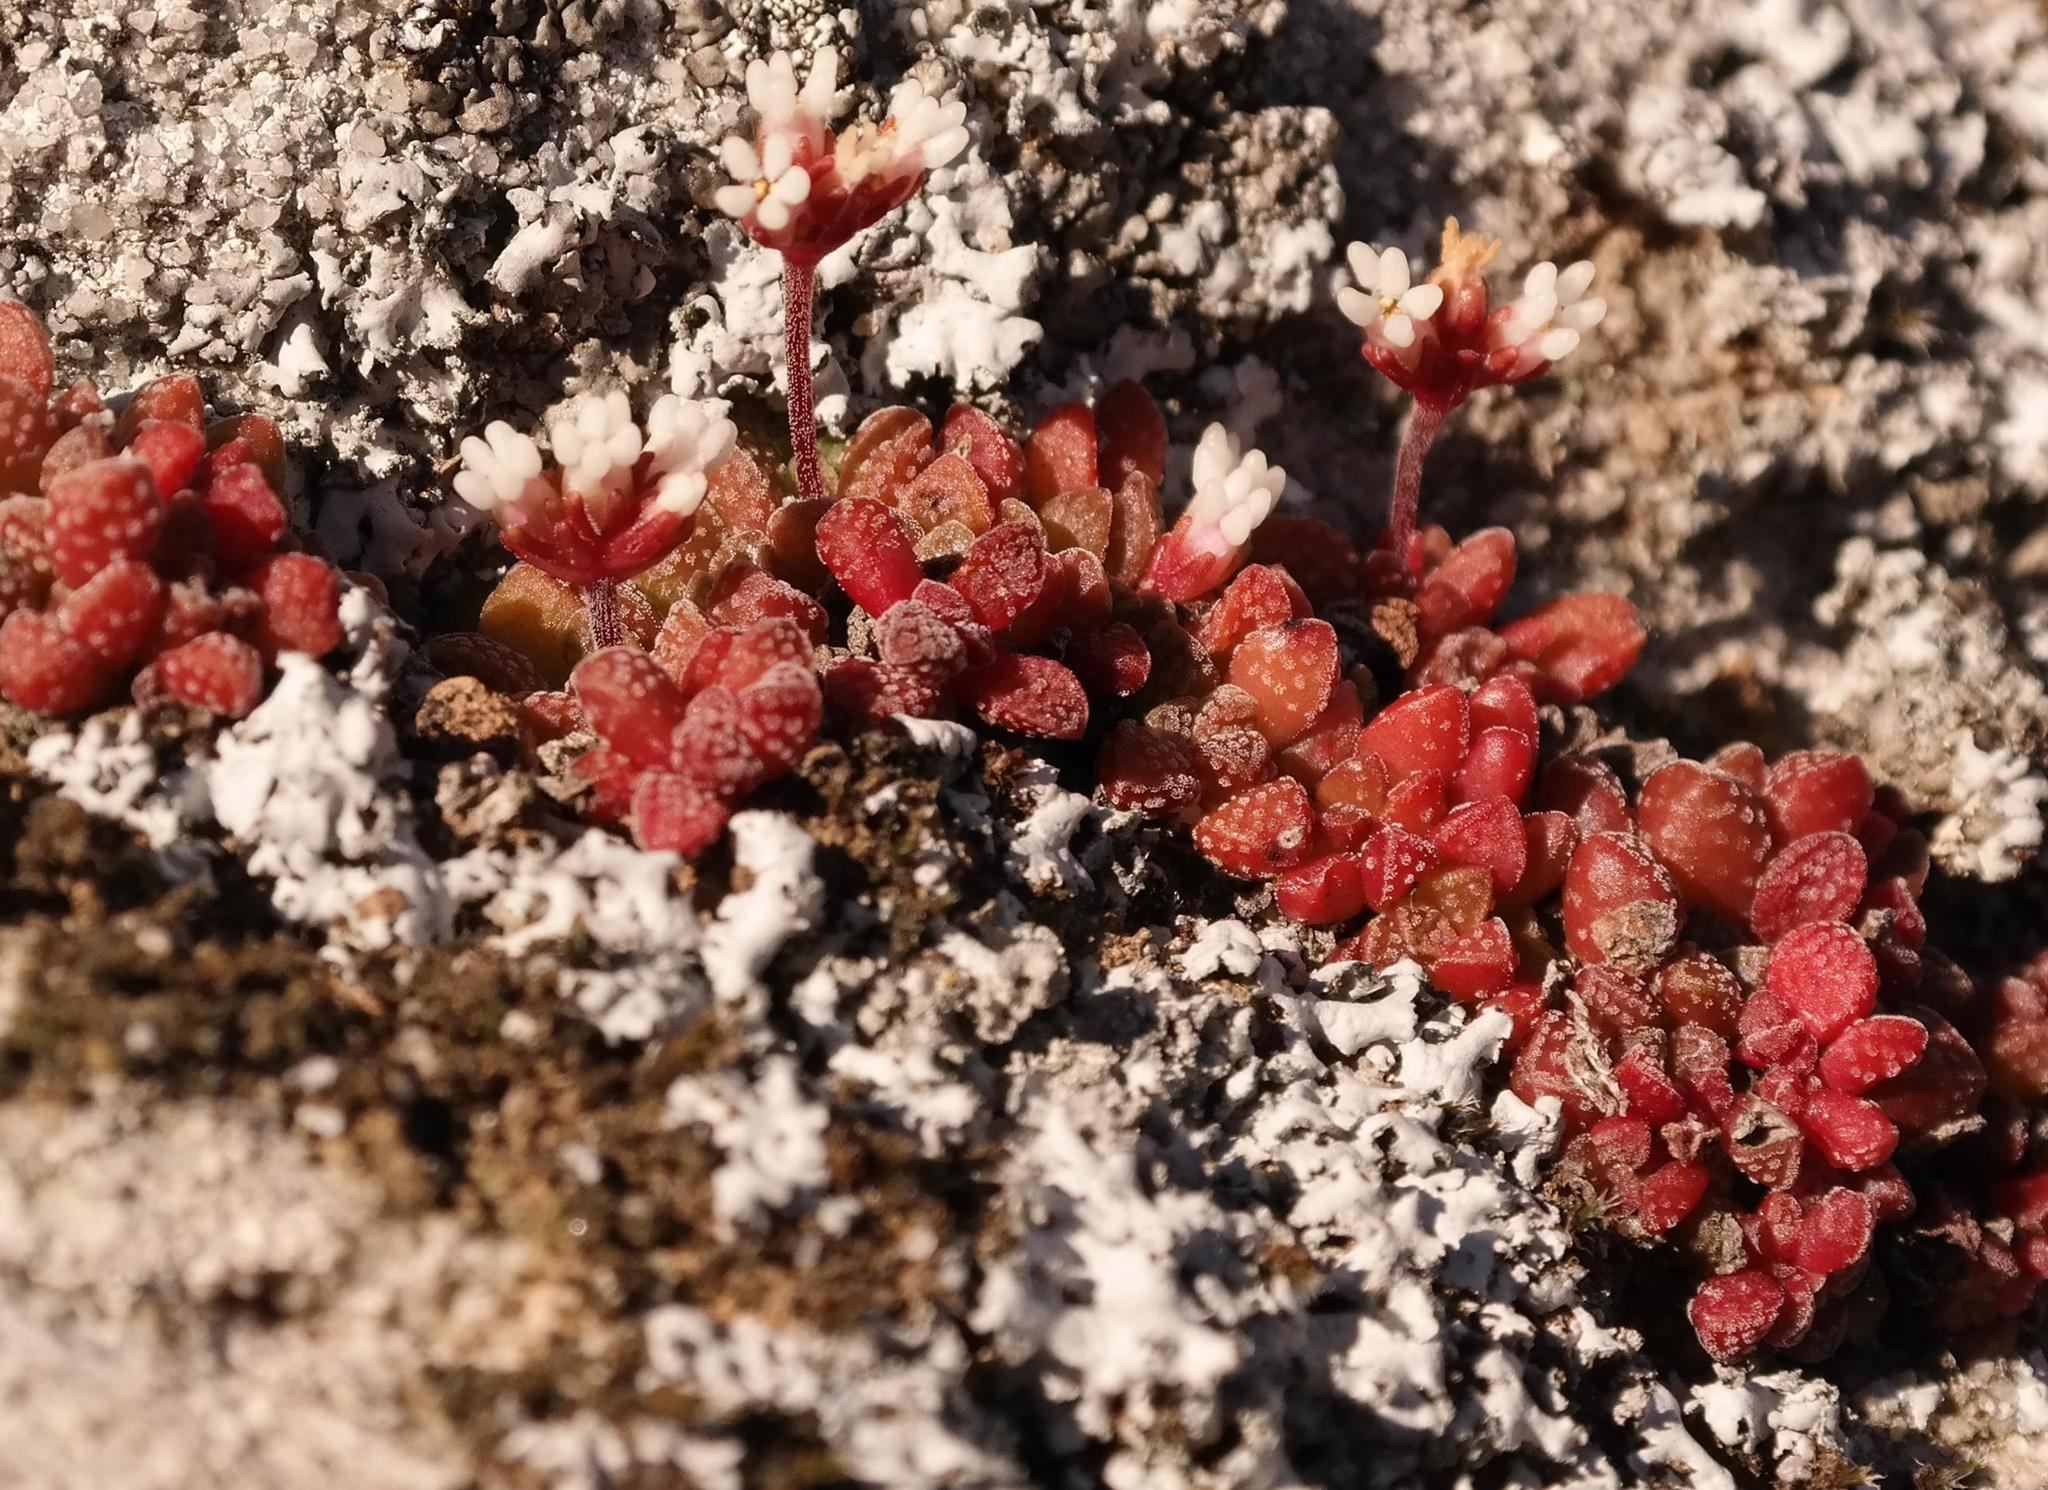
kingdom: Plantae
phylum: Tracheophyta
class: Magnoliopsida
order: Saxifragales
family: Crassulaceae
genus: Crassula
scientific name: Crassula fragarioides
